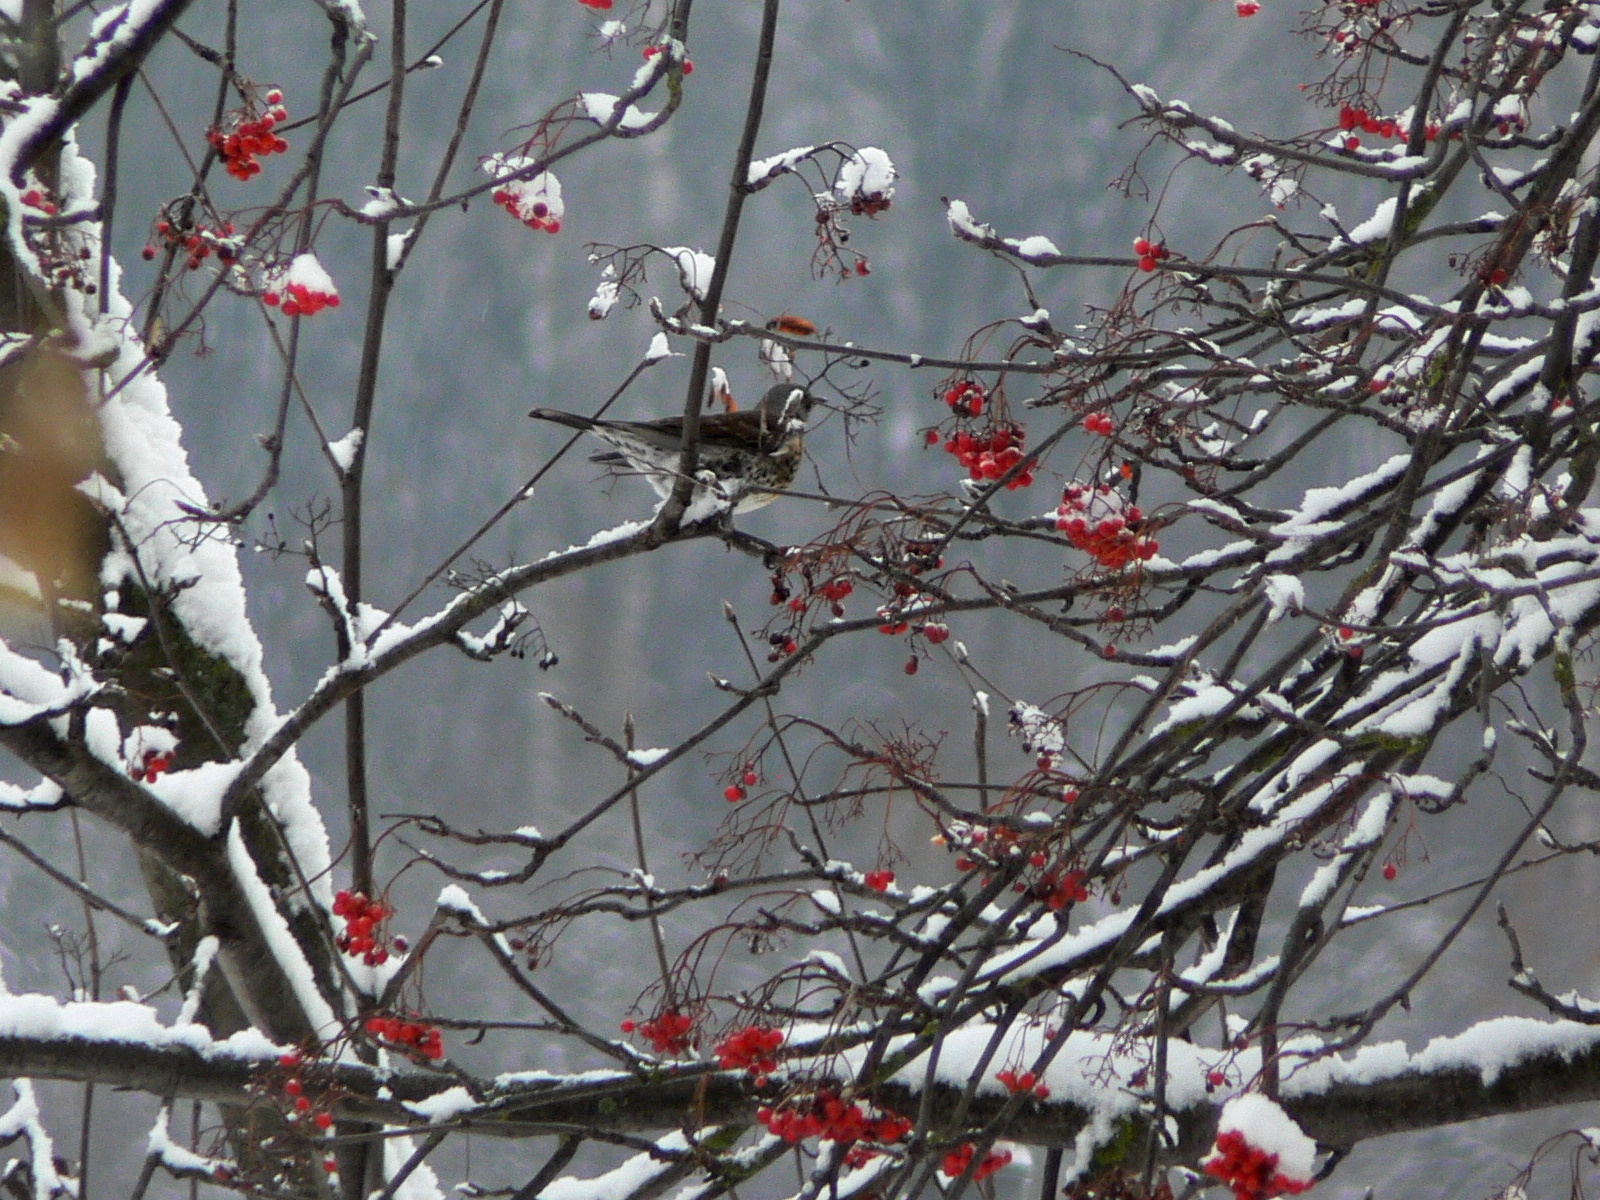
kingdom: Animalia
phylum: Chordata
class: Aves
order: Passeriformes
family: Turdidae
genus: Turdus
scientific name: Turdus pilaris
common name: Fieldfare
